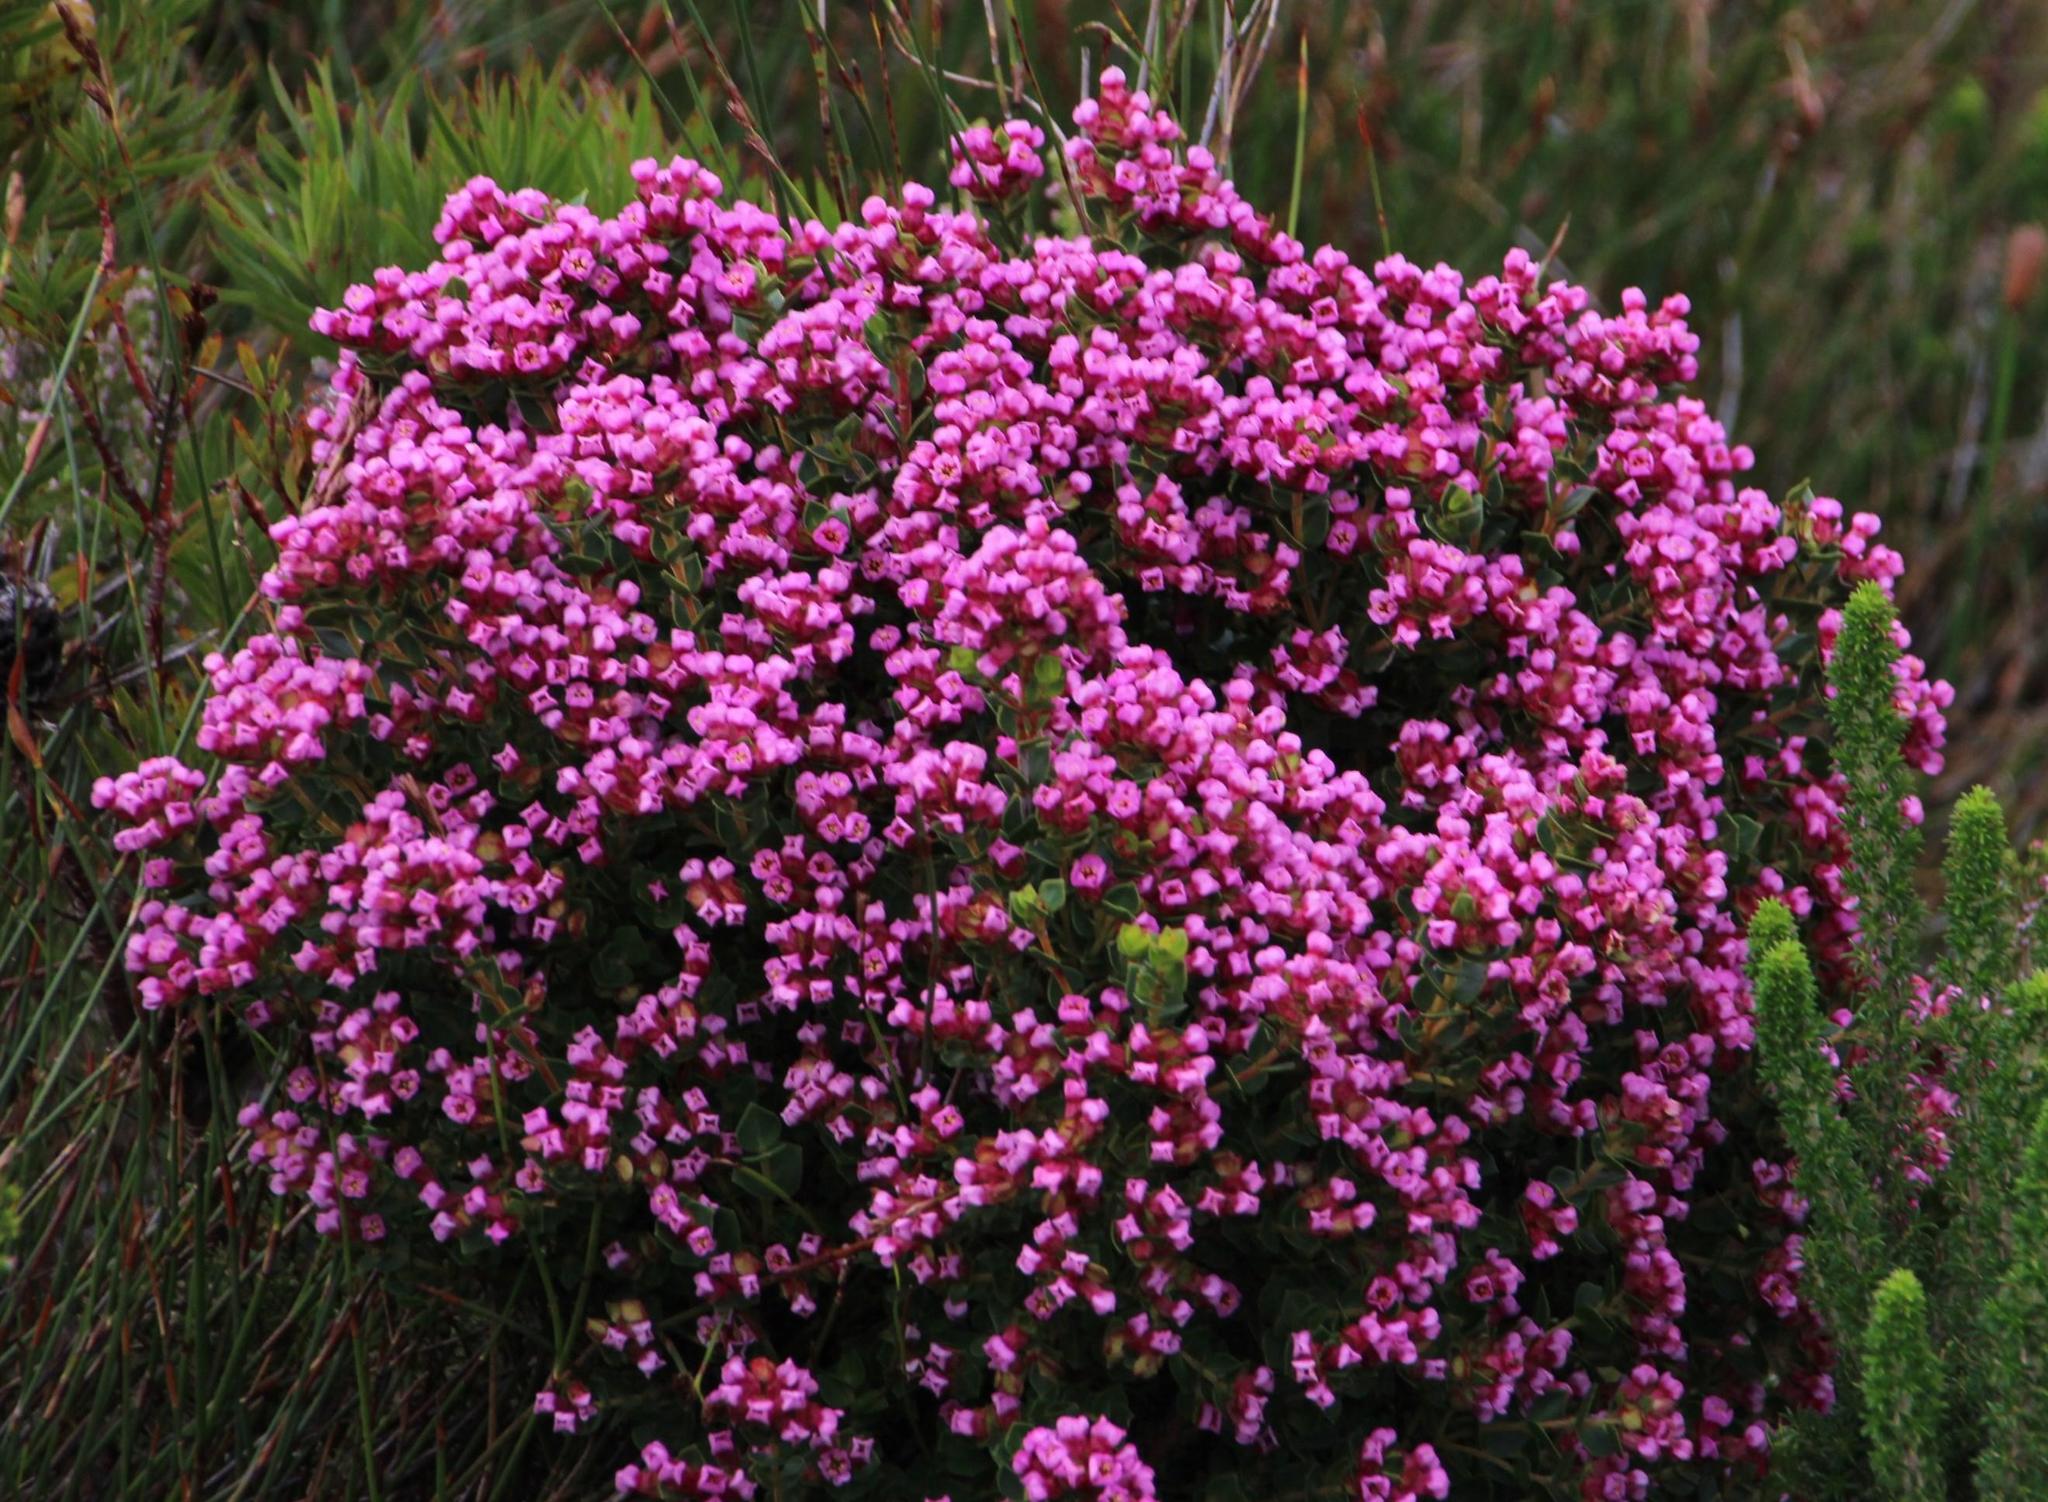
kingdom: Plantae
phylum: Tracheophyta
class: Magnoliopsida
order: Myrtales
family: Penaeaceae
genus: Brachysiphon
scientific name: Brachysiphon fucatus
